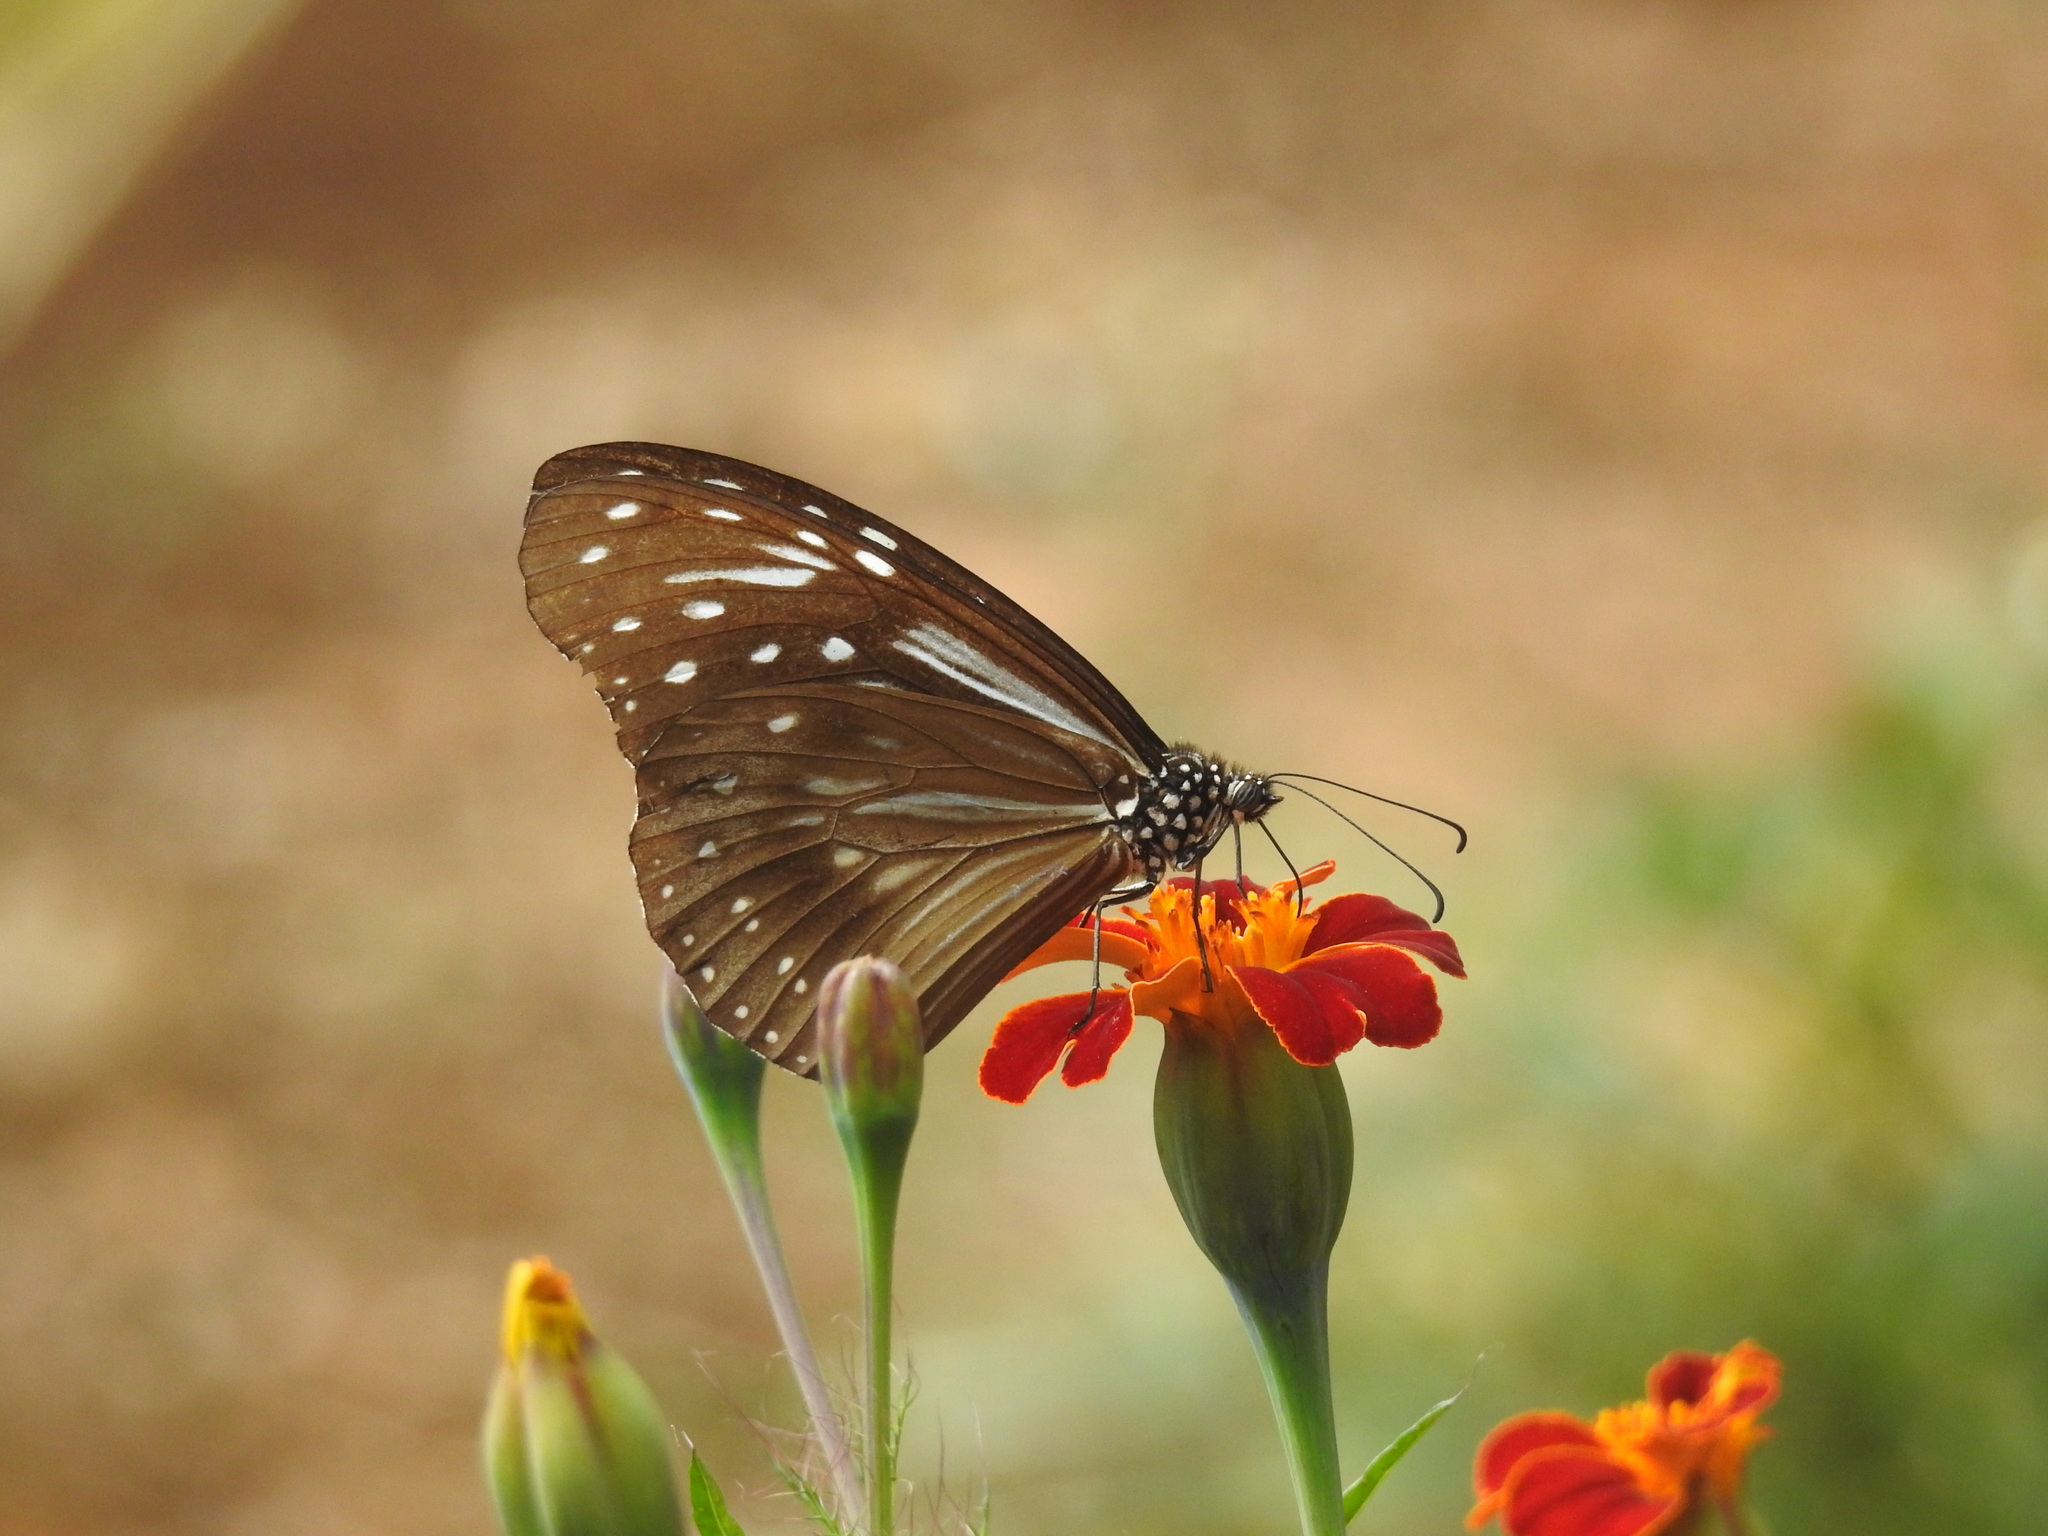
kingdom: Animalia
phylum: Arthropoda
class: Insecta
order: Lepidoptera
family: Nymphalidae
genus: Parantica
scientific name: Parantica nilgiriensis
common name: Nilgiri tiger
